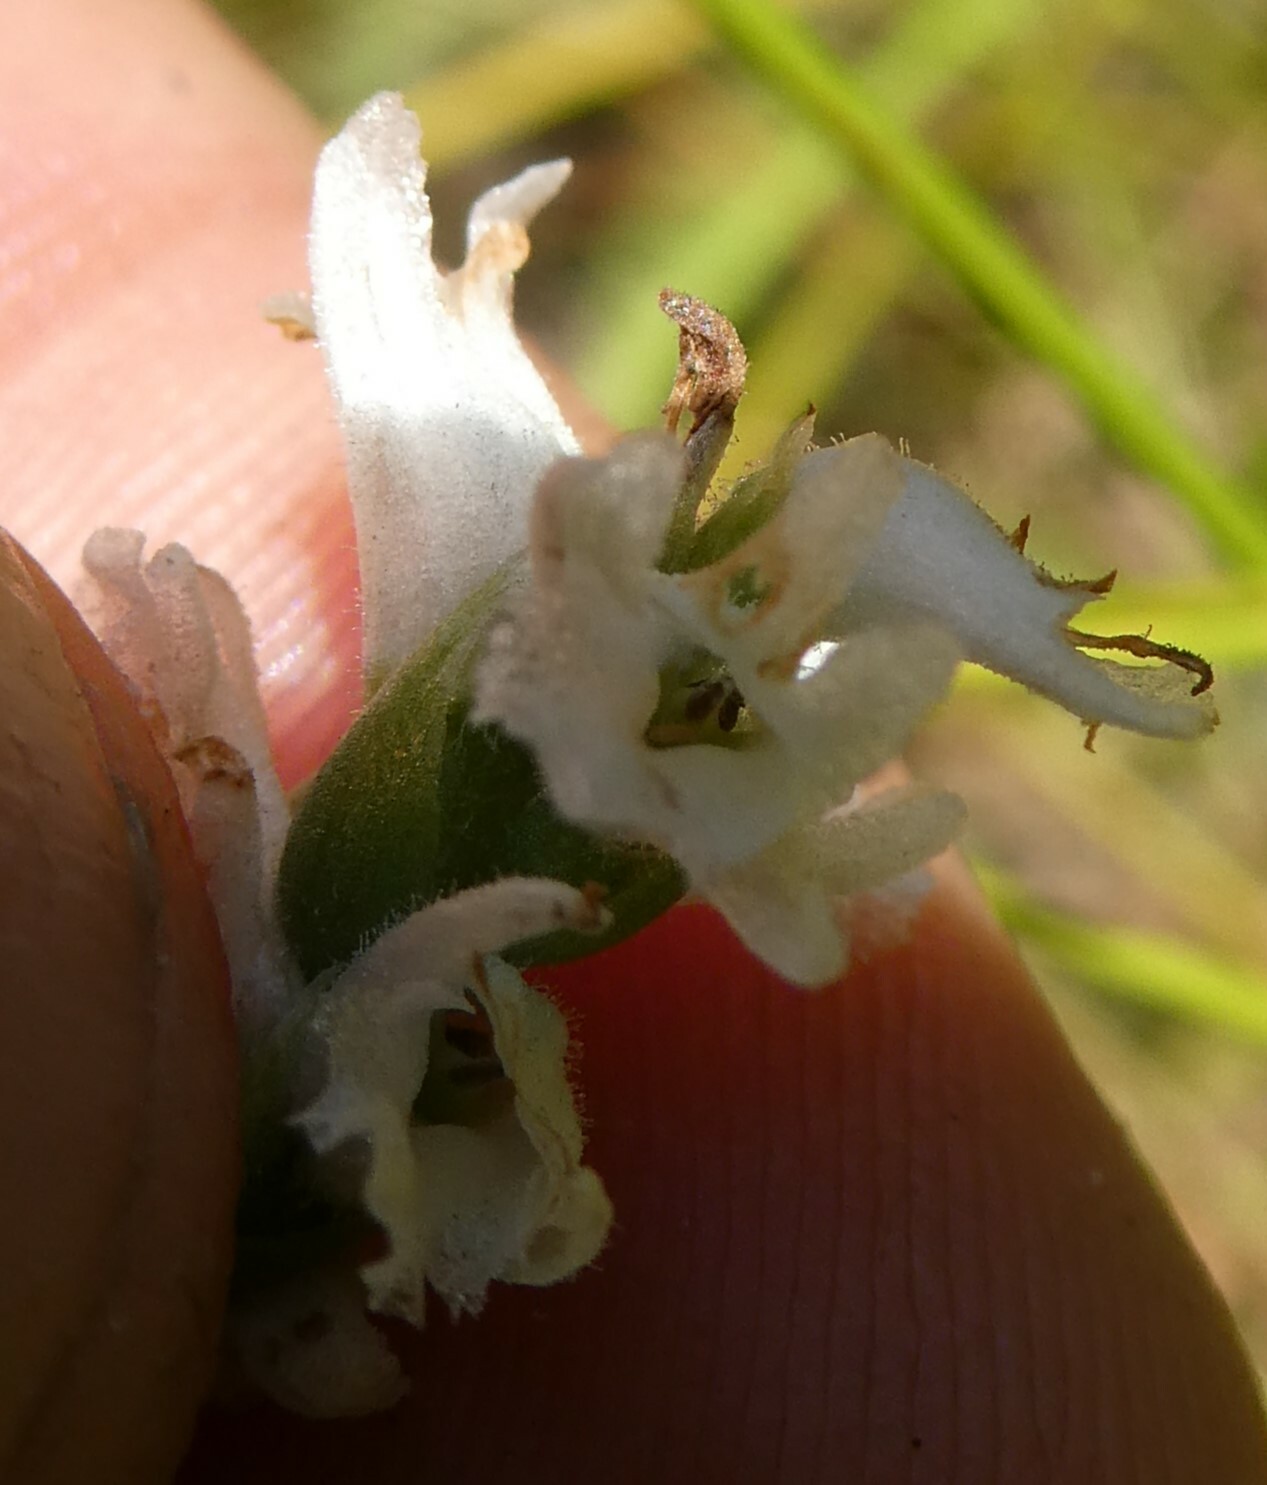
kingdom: Plantae
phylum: Tracheophyta
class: Liliopsida
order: Asparagales
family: Orchidaceae
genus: Spiranthes
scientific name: Spiranthes incurva
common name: Sphinx ladies'-tresses
